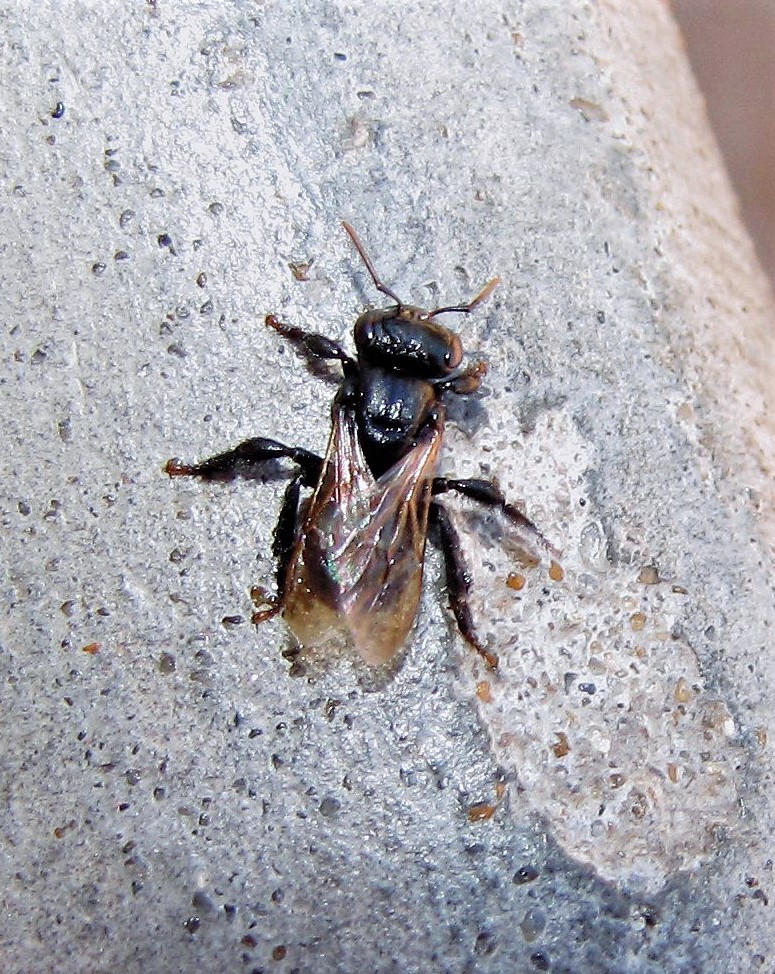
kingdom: Animalia
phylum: Arthropoda
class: Insecta
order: Hymenoptera
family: Apidae
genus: Scaptotrigona
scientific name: Scaptotrigona jujuyensis
